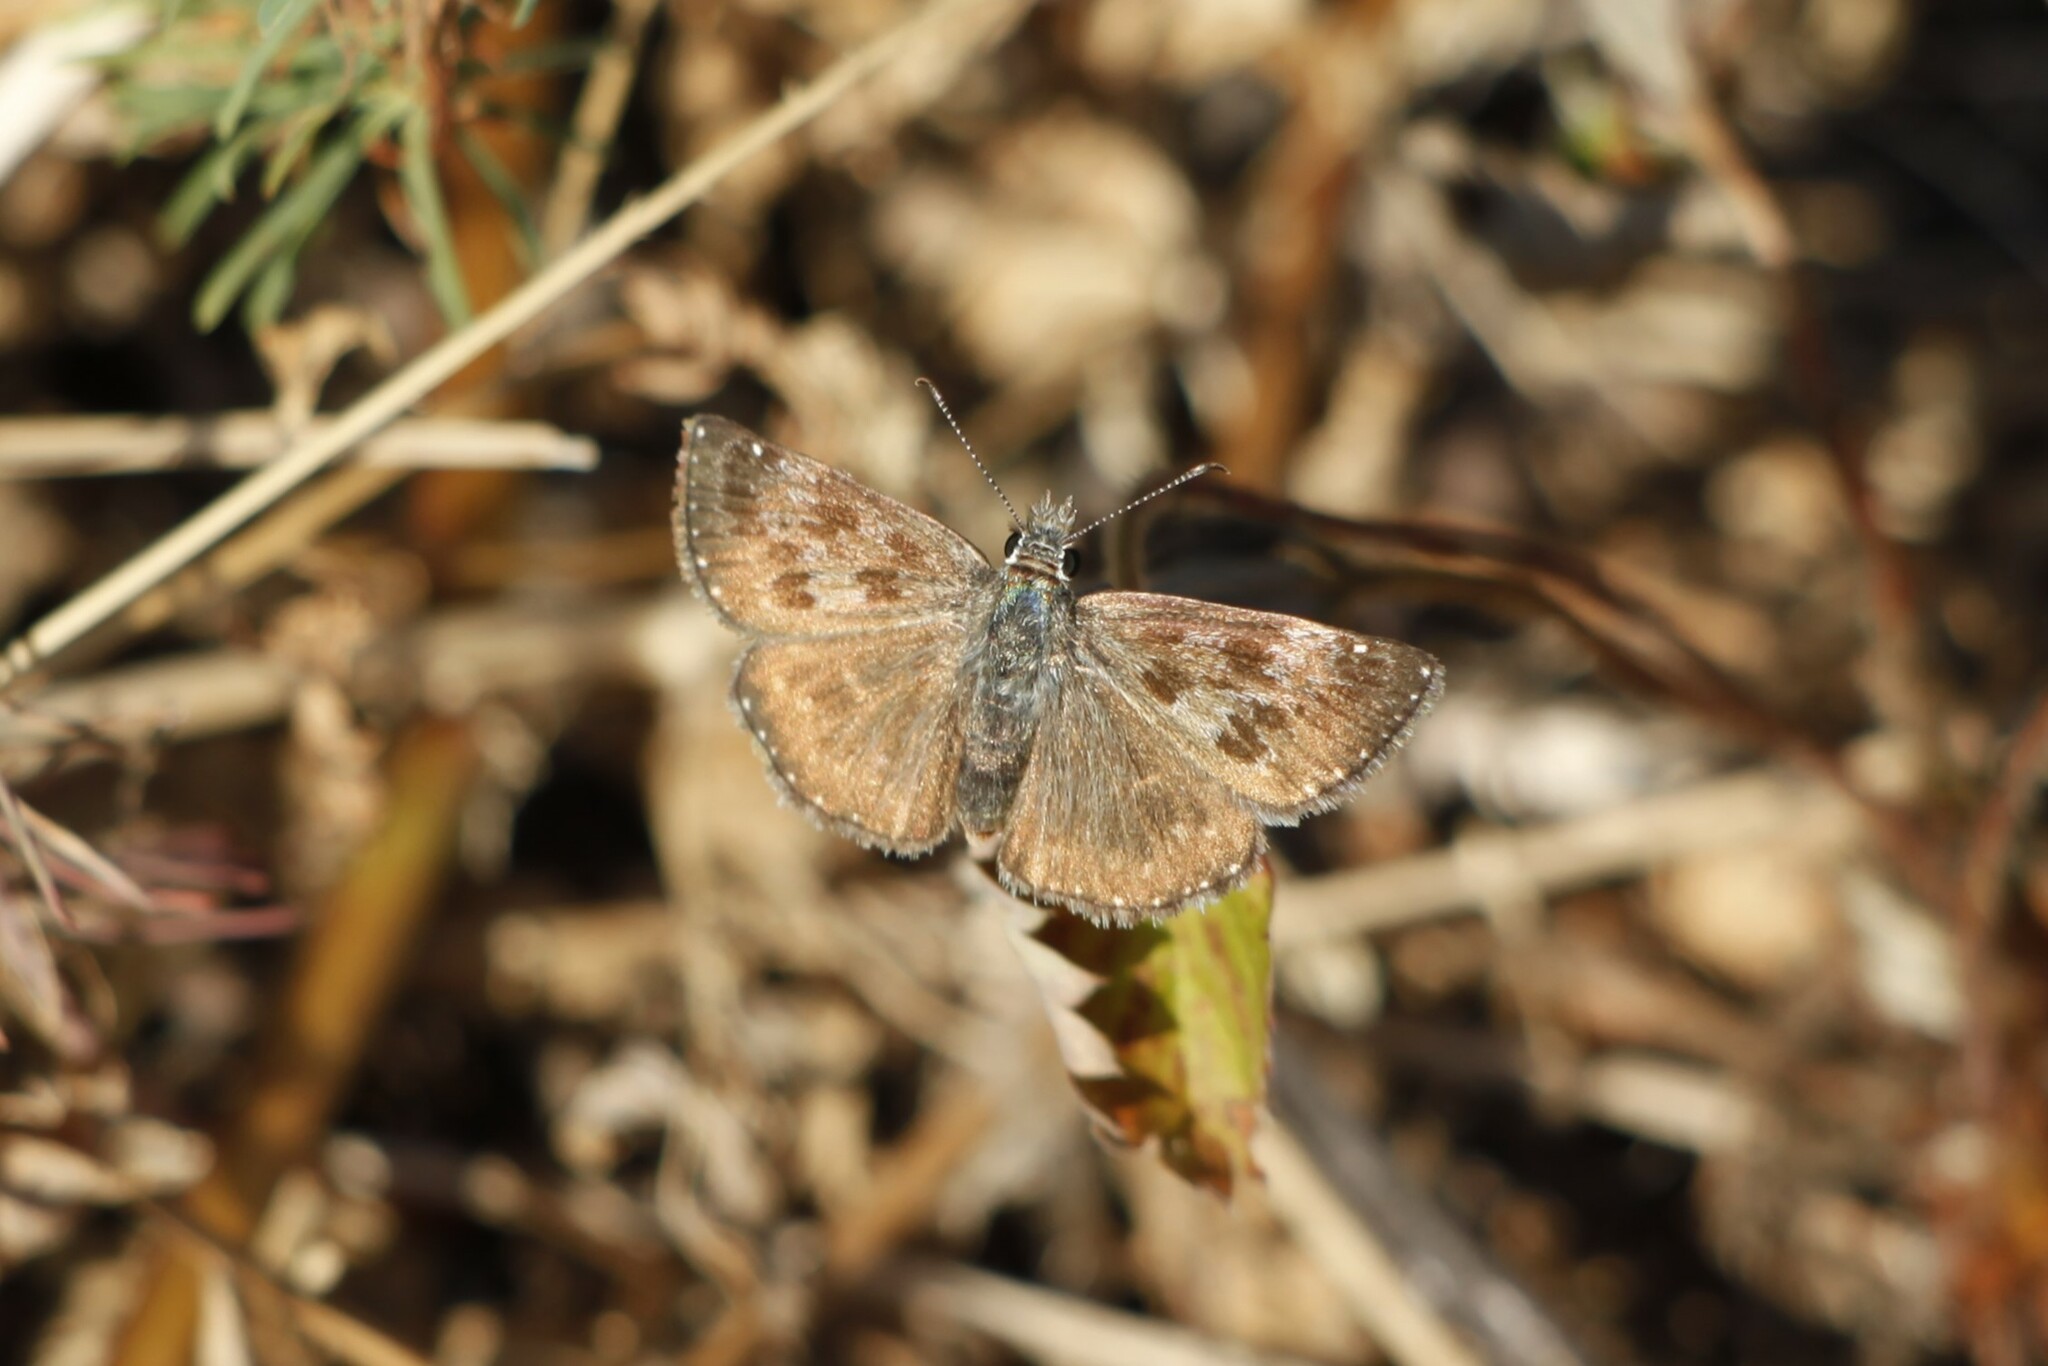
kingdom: Animalia
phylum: Arthropoda
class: Insecta
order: Lepidoptera
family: Hesperiidae
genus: Erynnis
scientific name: Erynnis tages
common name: Dingy skipper
